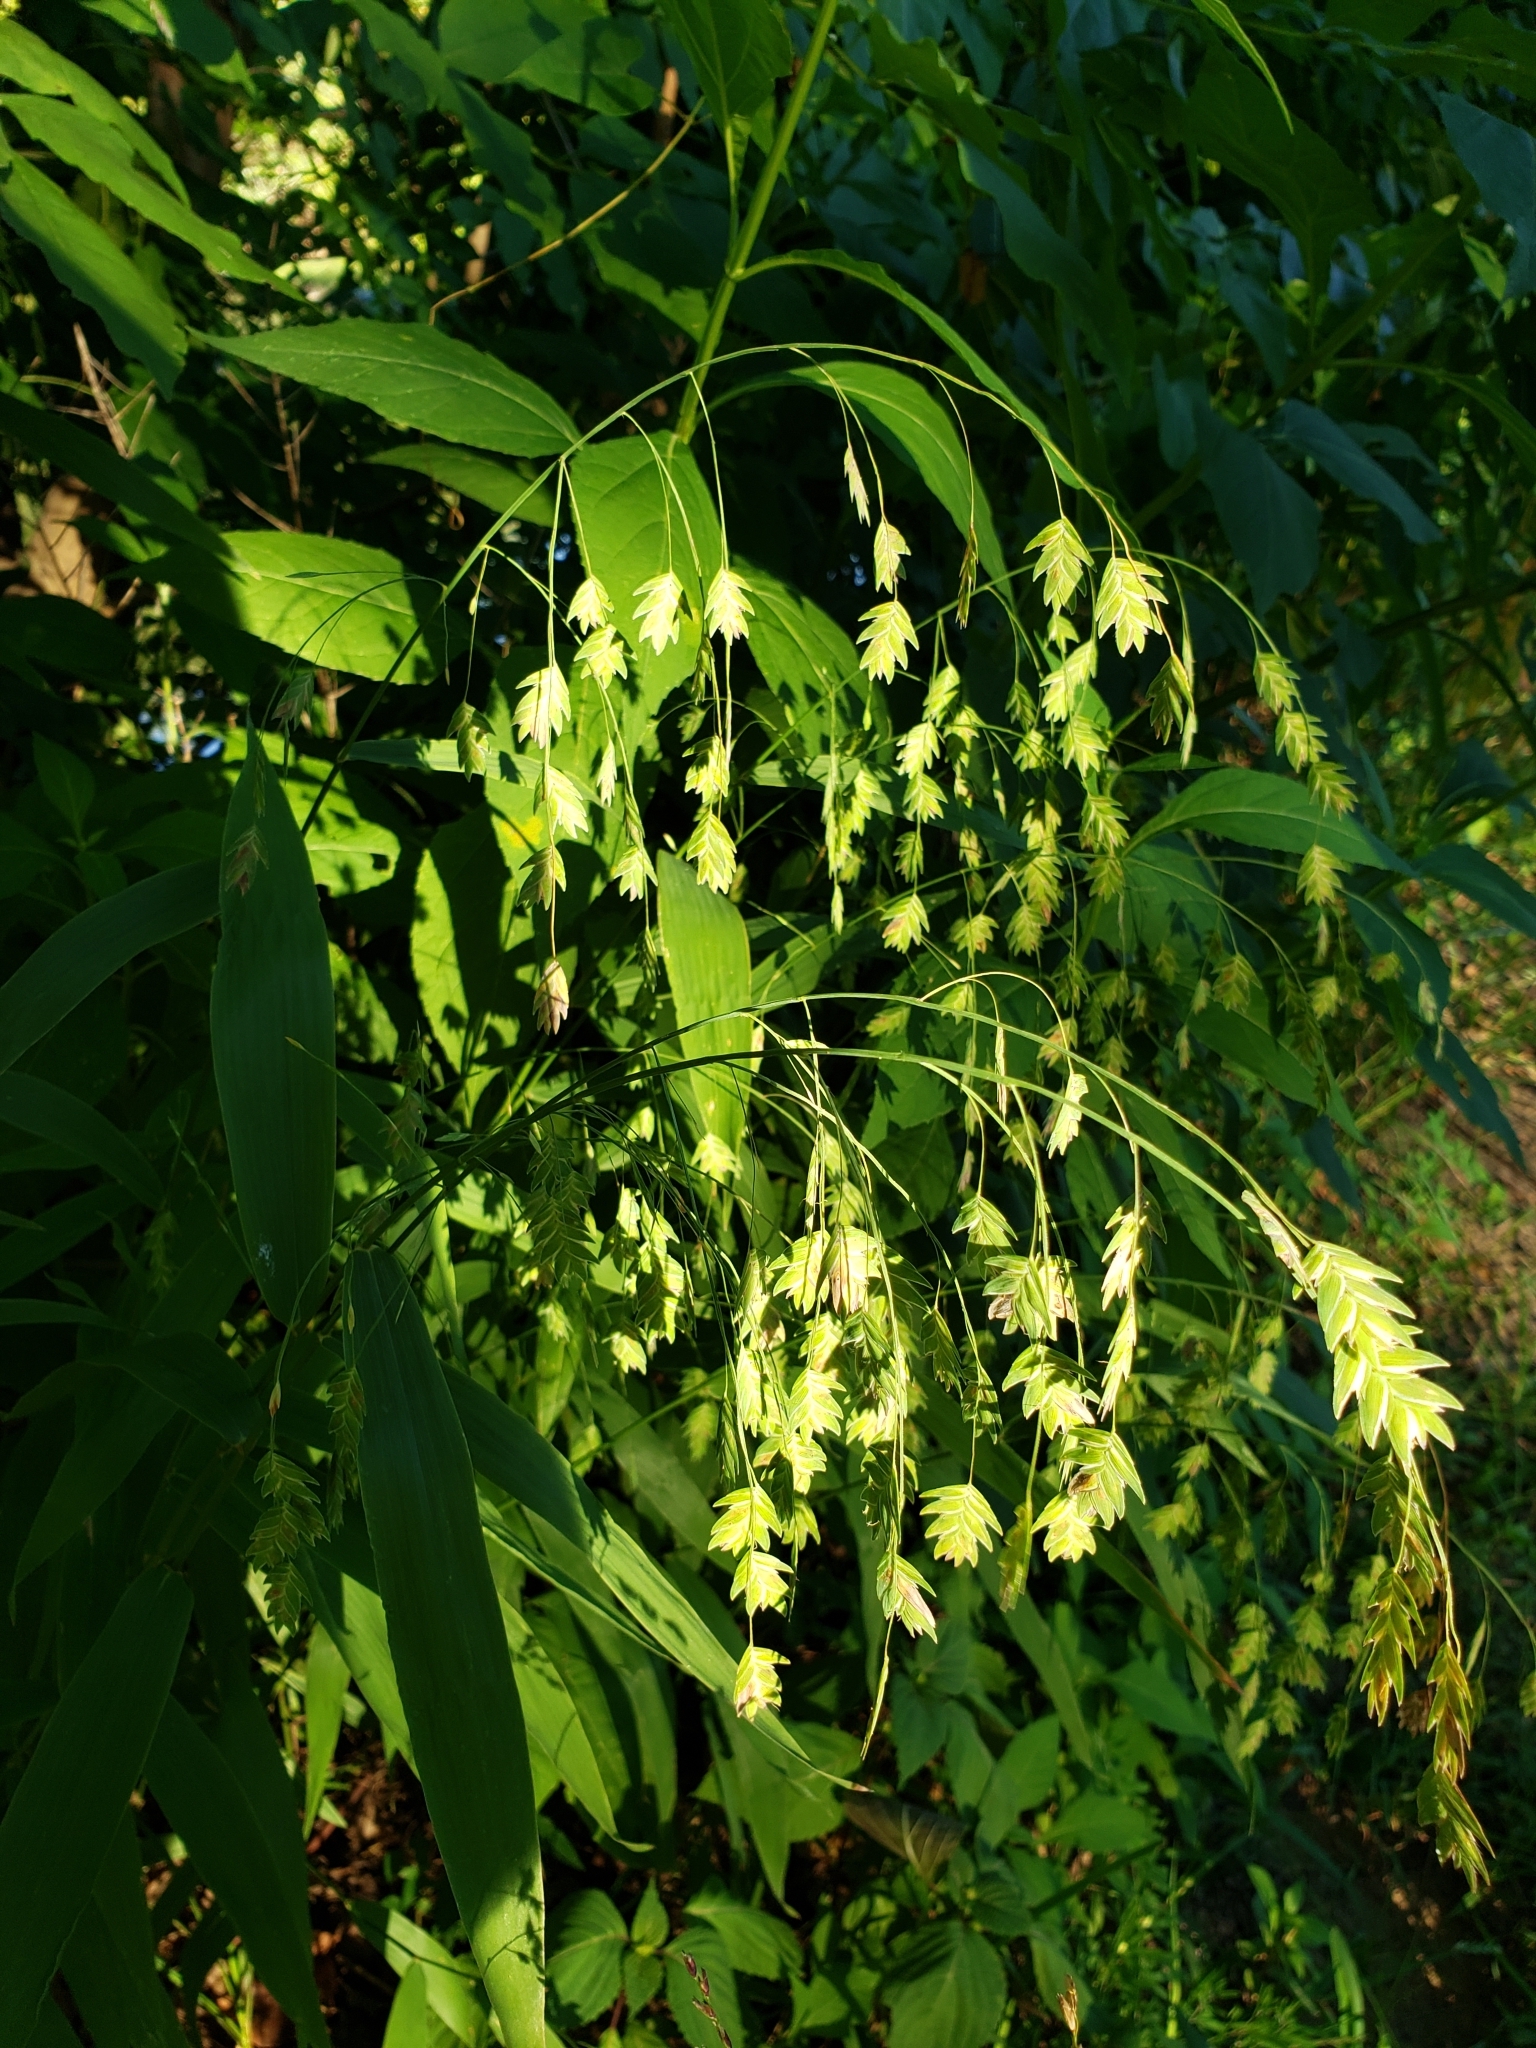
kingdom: Plantae
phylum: Tracheophyta
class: Liliopsida
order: Poales
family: Poaceae
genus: Chasmanthium
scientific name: Chasmanthium latifolium
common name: Broad-leaved chasmanthium
